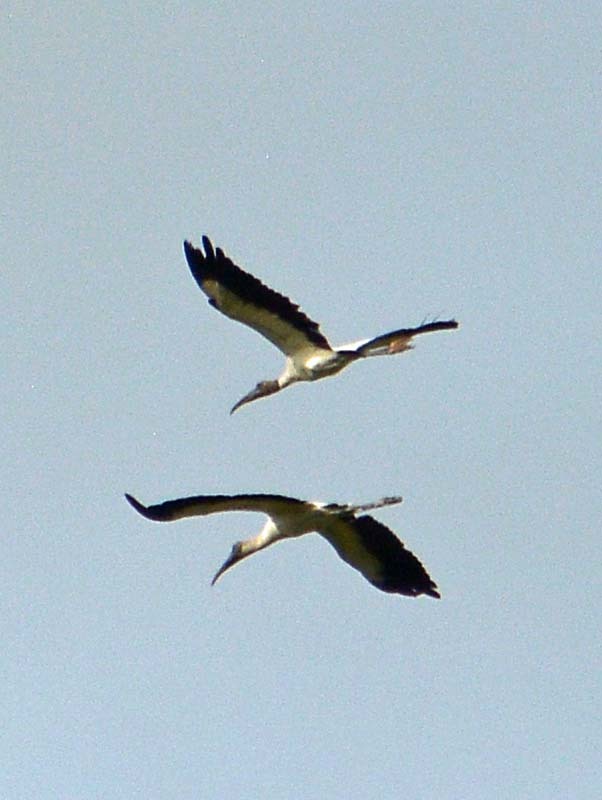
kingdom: Animalia
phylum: Chordata
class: Aves
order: Ciconiiformes
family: Ciconiidae
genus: Mycteria
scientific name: Mycteria americana
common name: Wood stork
